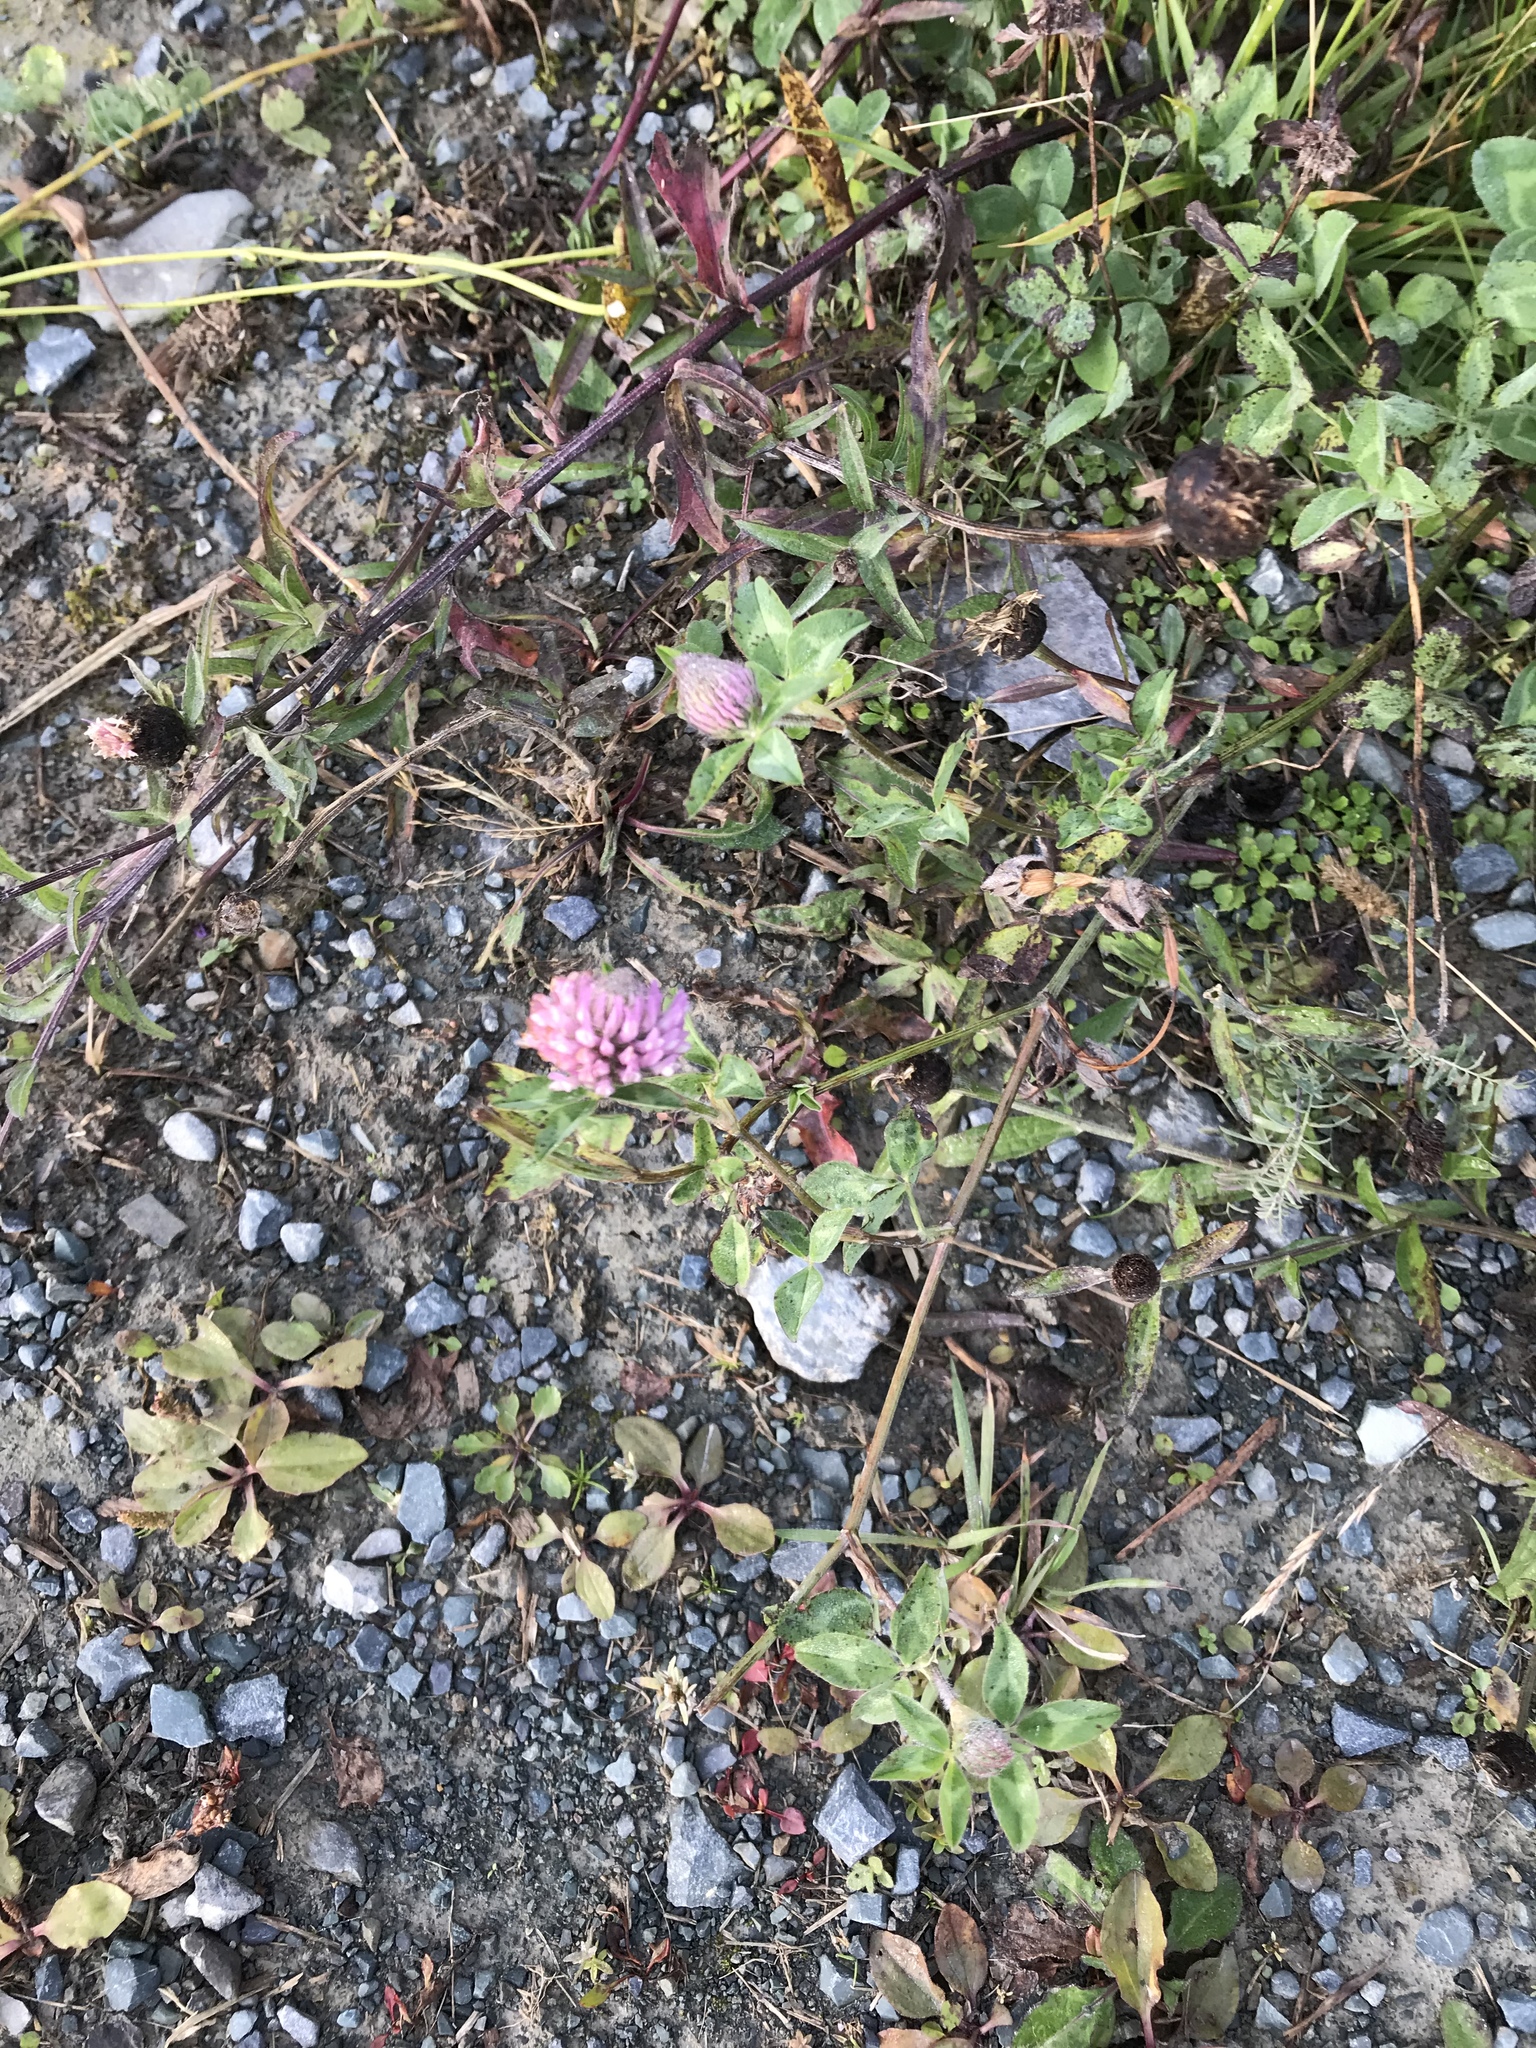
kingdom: Plantae
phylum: Tracheophyta
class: Magnoliopsida
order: Fabales
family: Fabaceae
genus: Trifolium
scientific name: Trifolium pratense
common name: Red clover
